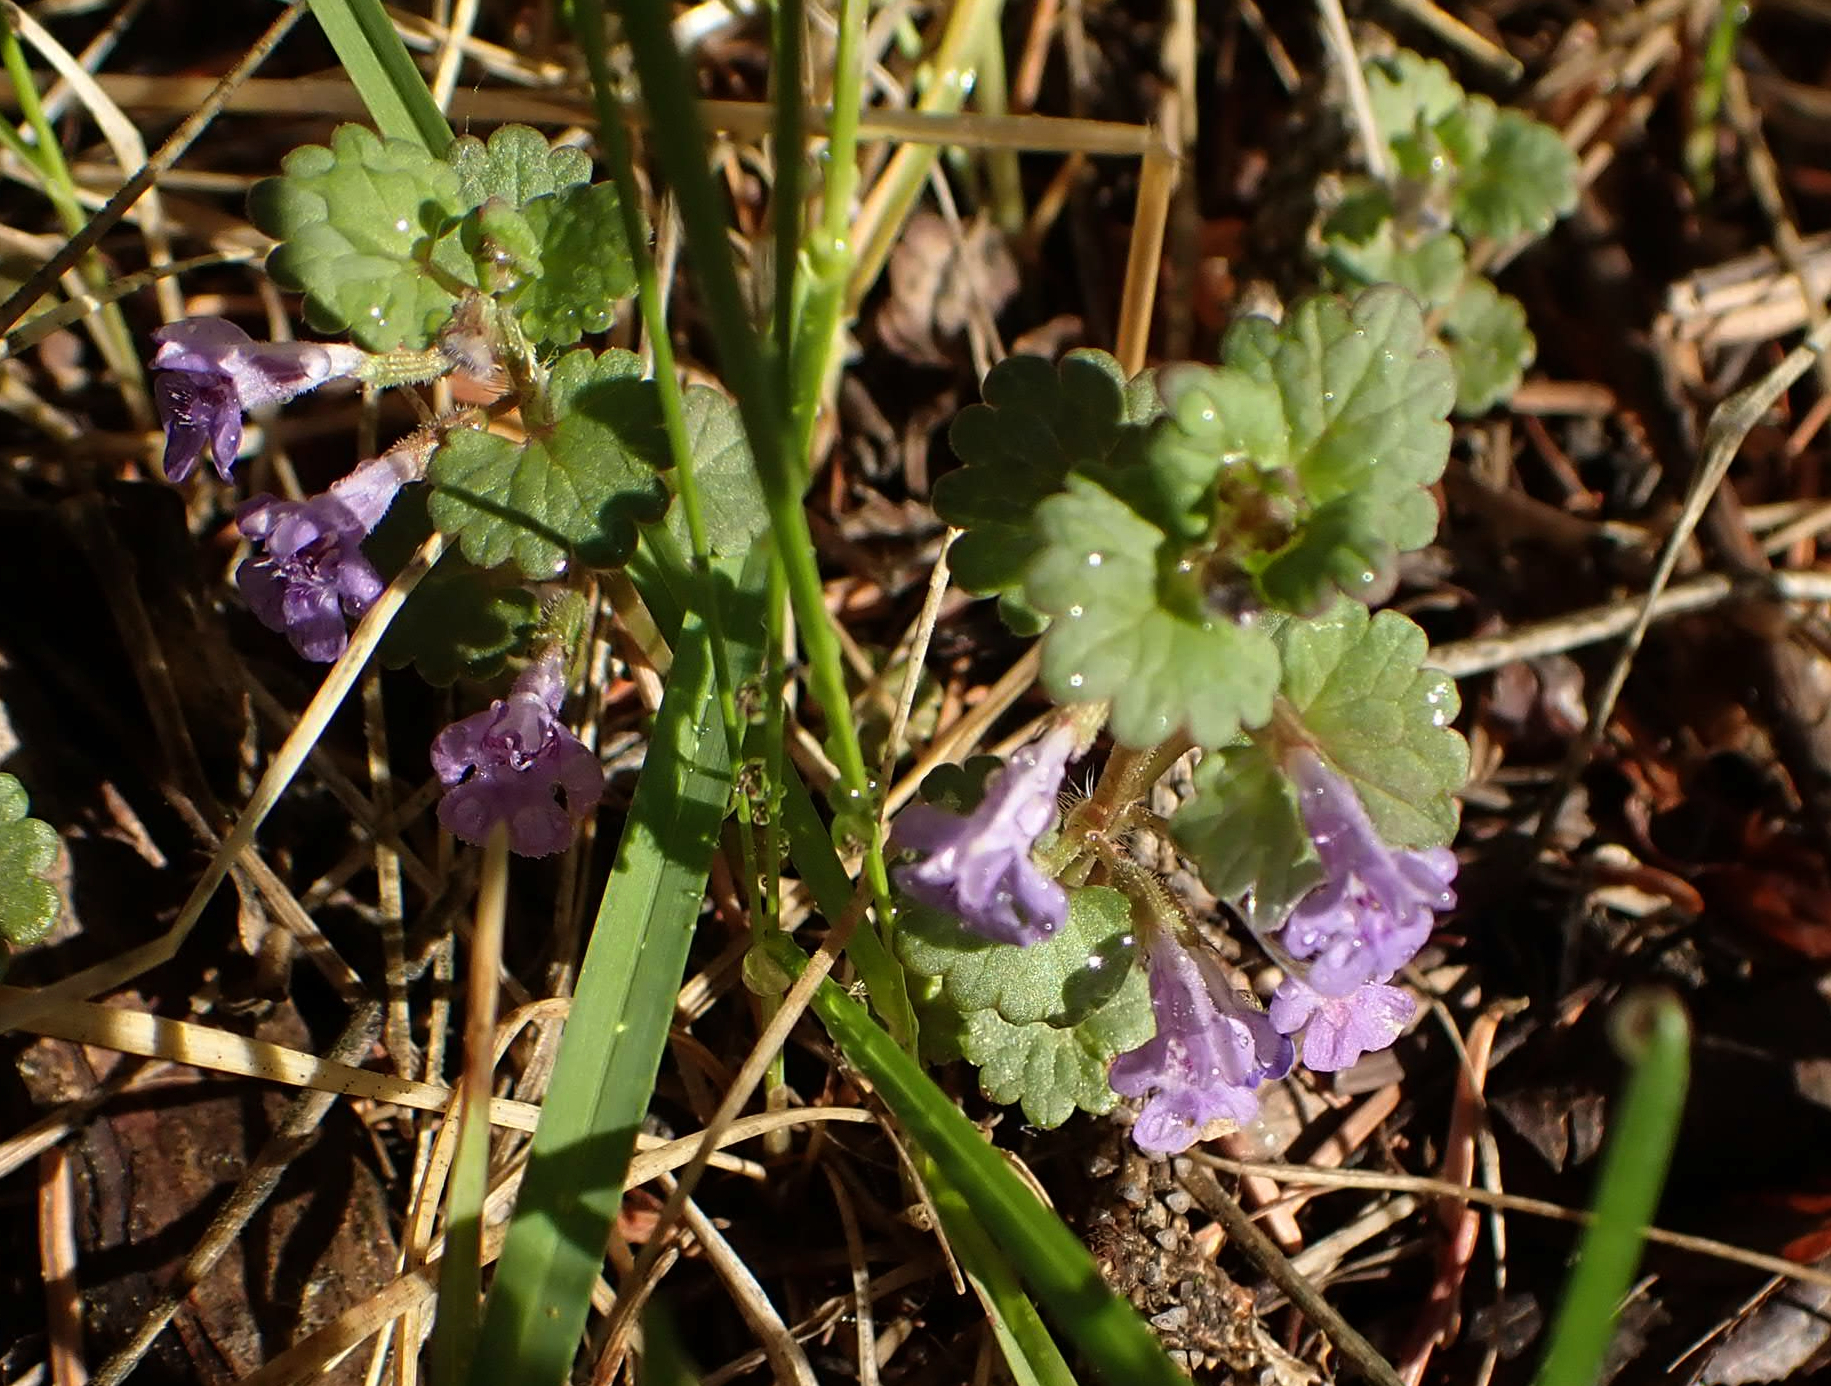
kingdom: Plantae
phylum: Tracheophyta
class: Magnoliopsida
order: Lamiales
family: Lamiaceae
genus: Glechoma
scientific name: Glechoma hederacea
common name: Ground ivy
